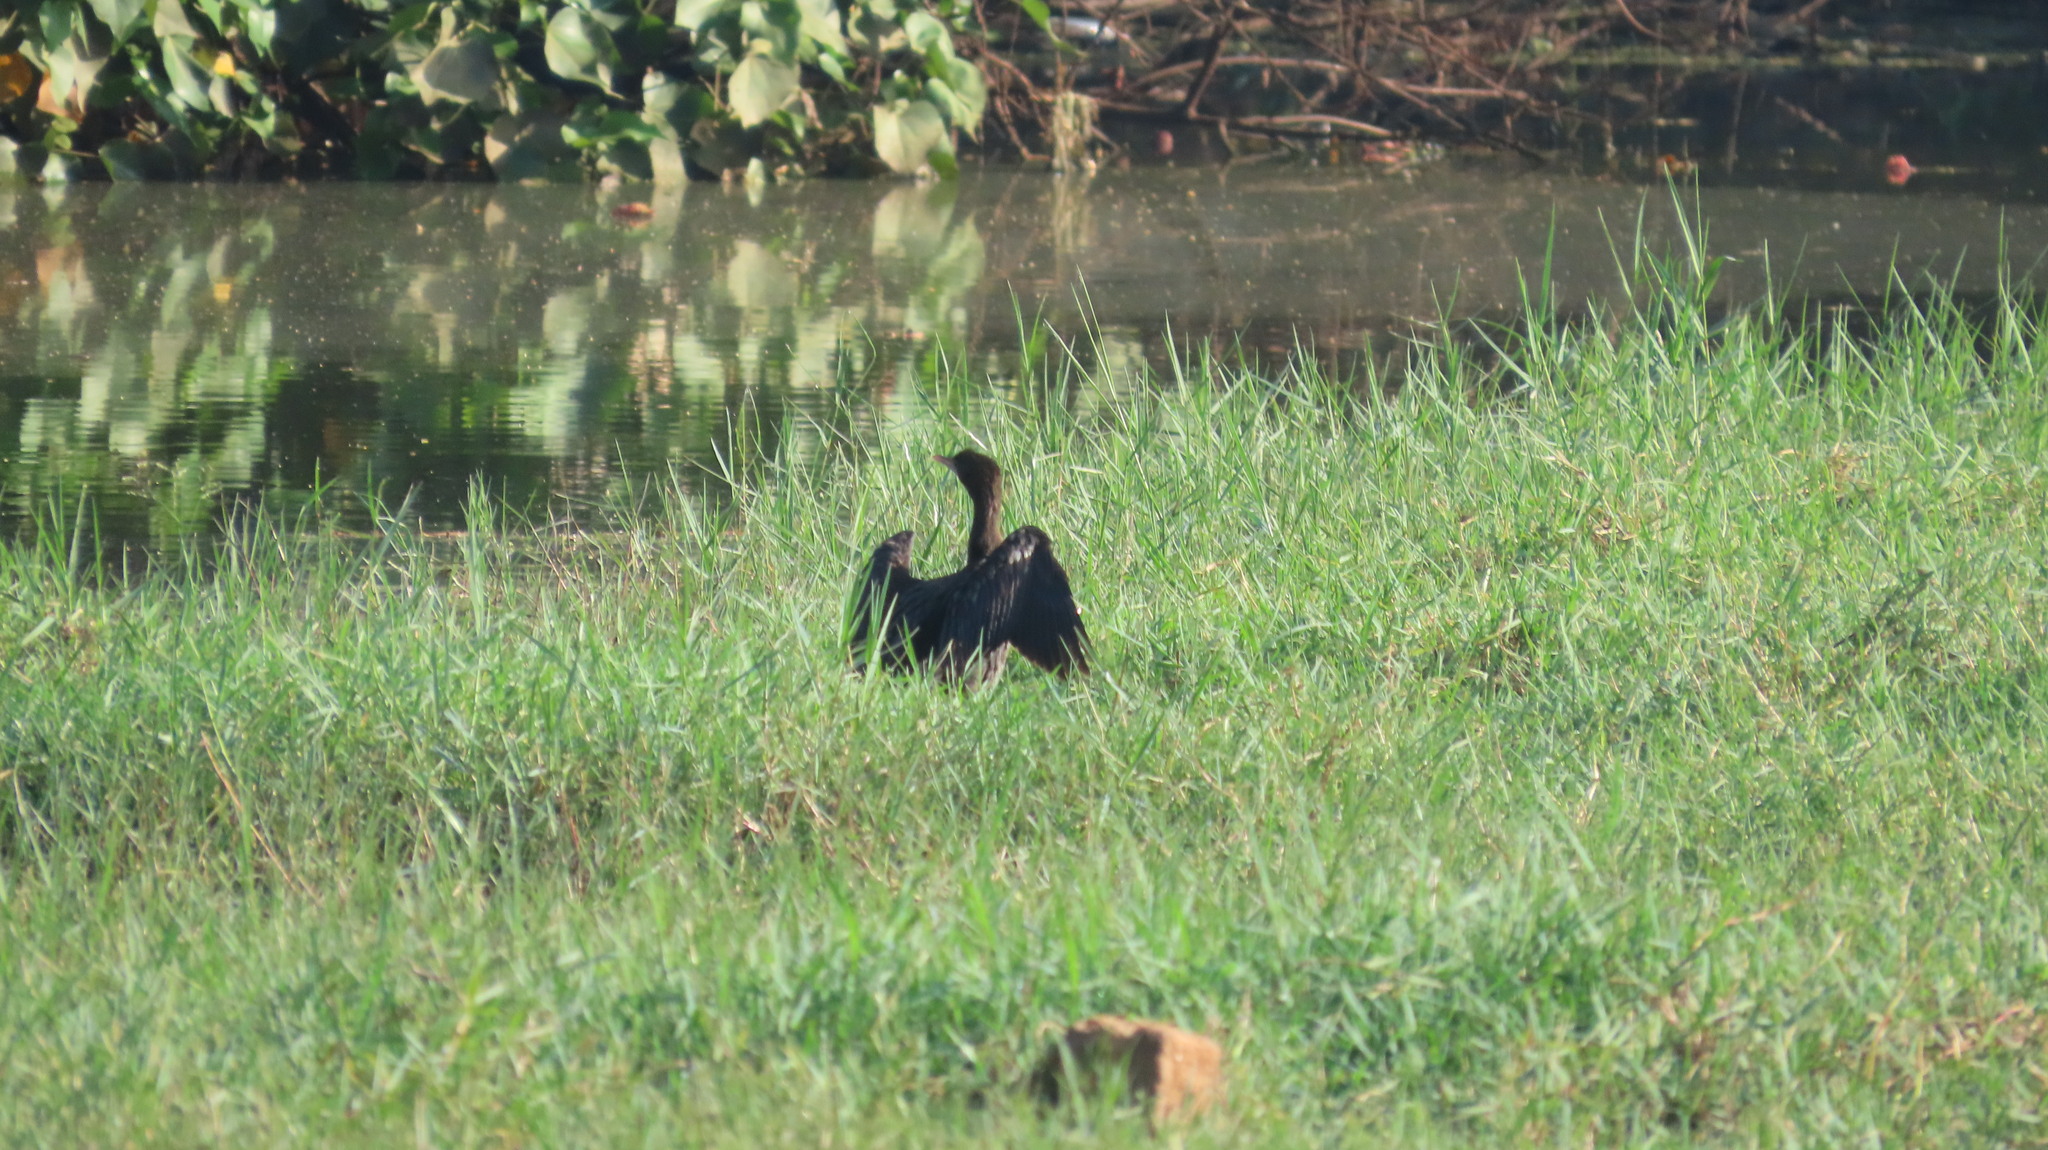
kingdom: Animalia
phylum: Chordata
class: Aves
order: Suliformes
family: Phalacrocoracidae
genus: Microcarbo
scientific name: Microcarbo niger
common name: Little cormorant
